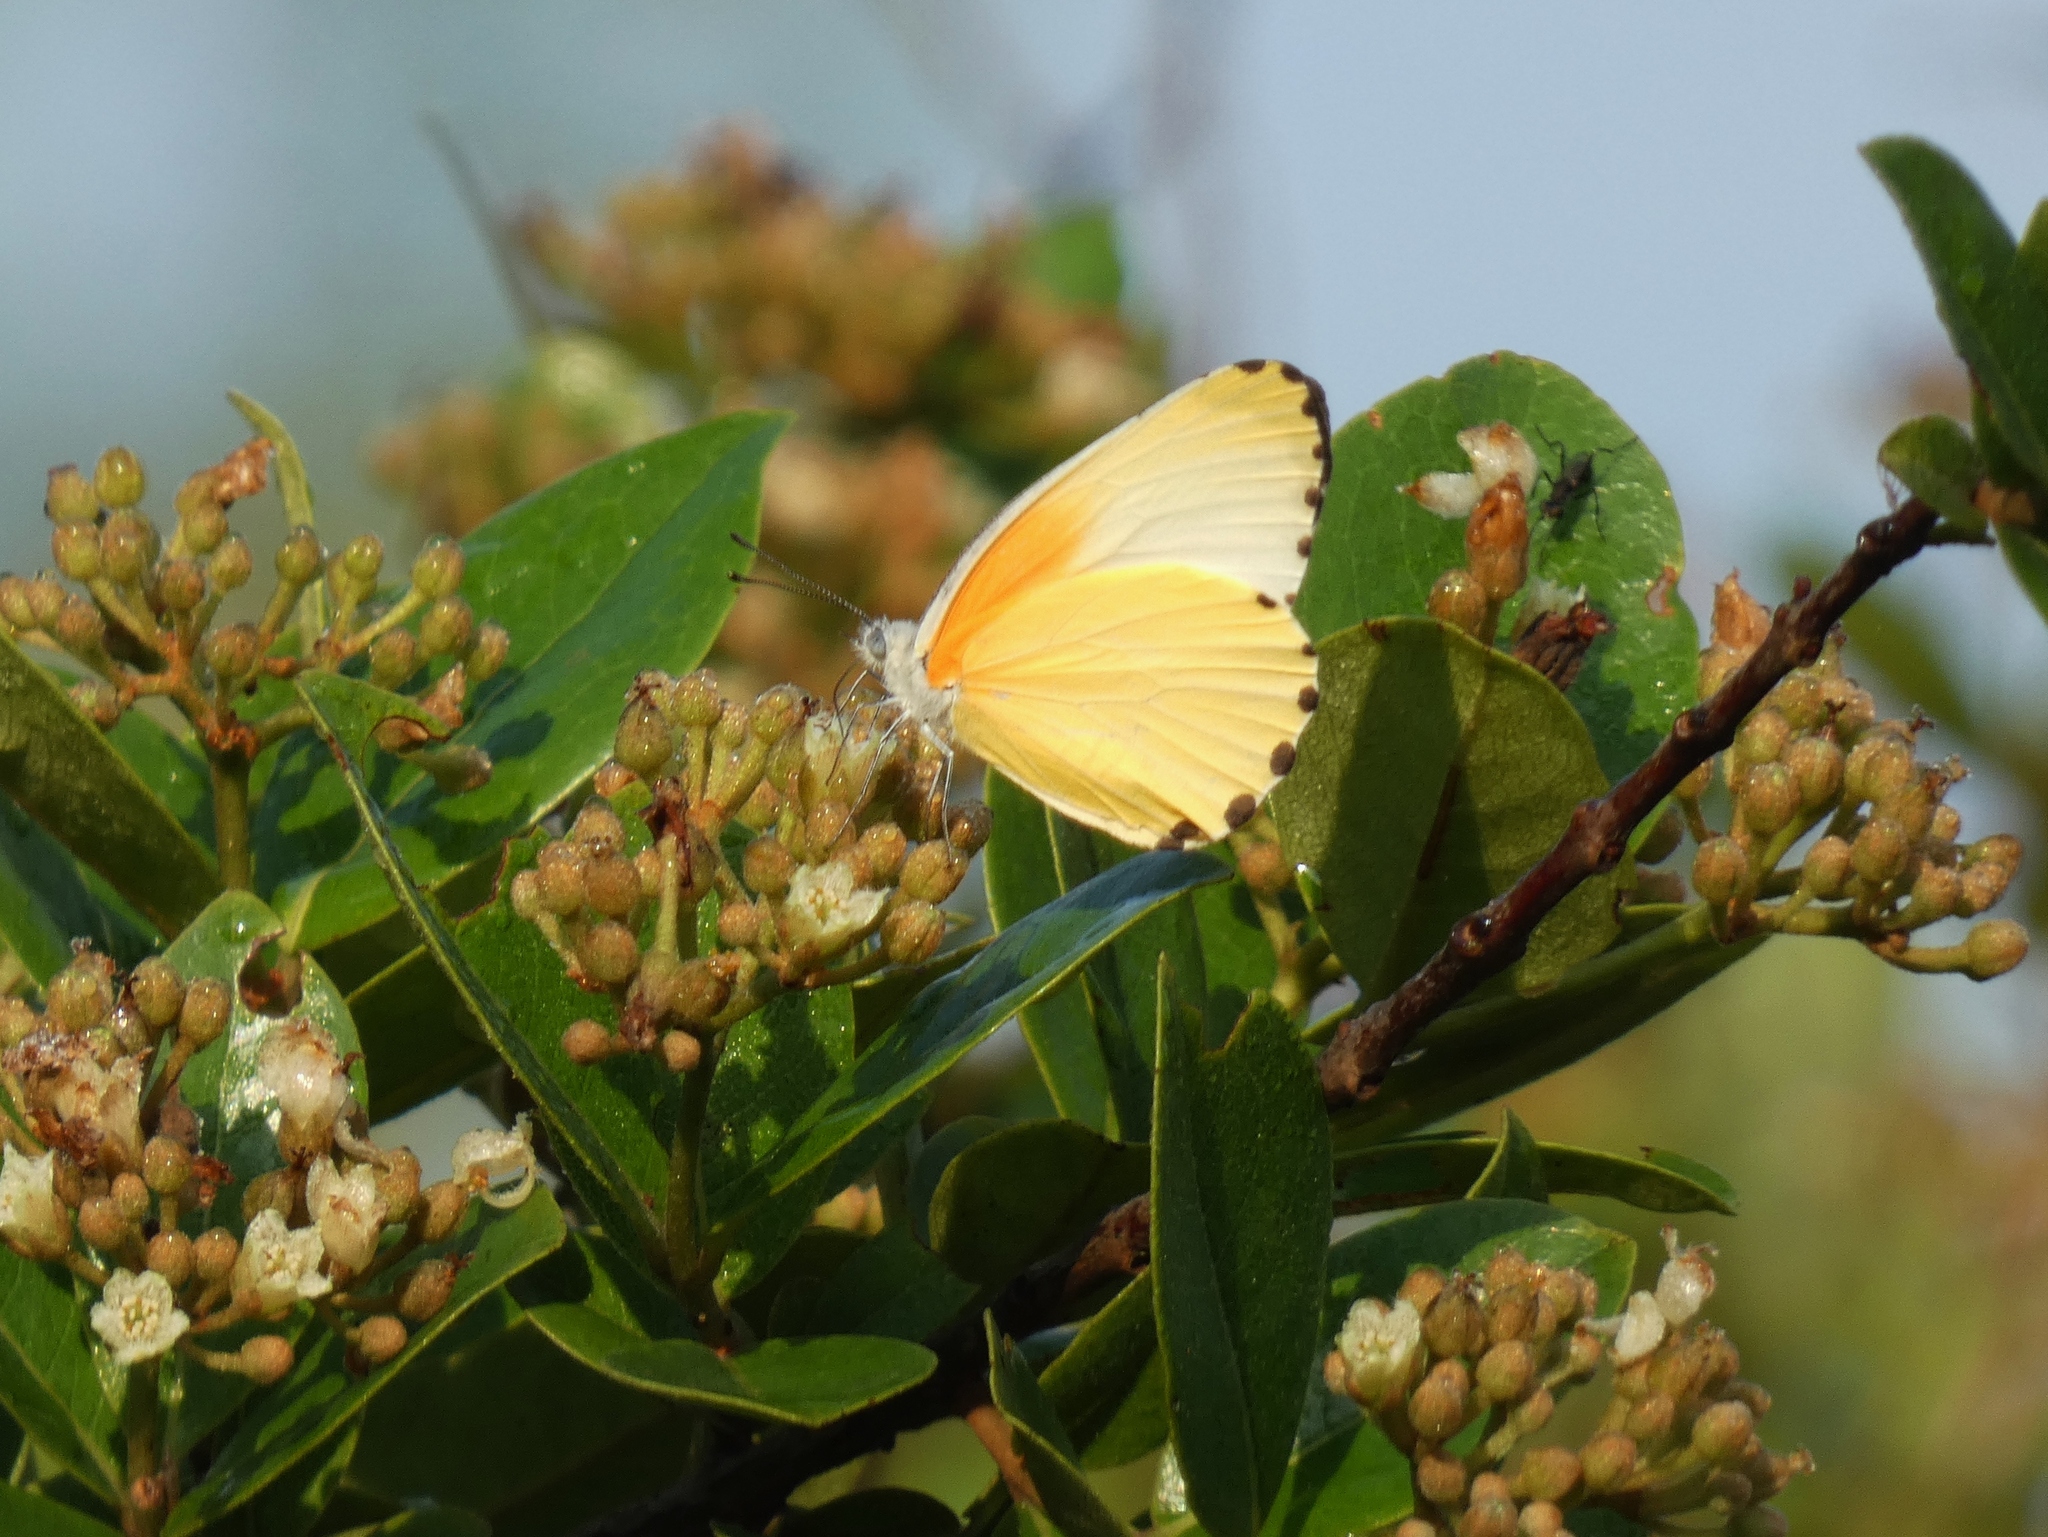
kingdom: Animalia
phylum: Arthropoda
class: Insecta
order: Lepidoptera
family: Pieridae
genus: Mylothris
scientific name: Mylothris agathina
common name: Eastern dotted border
